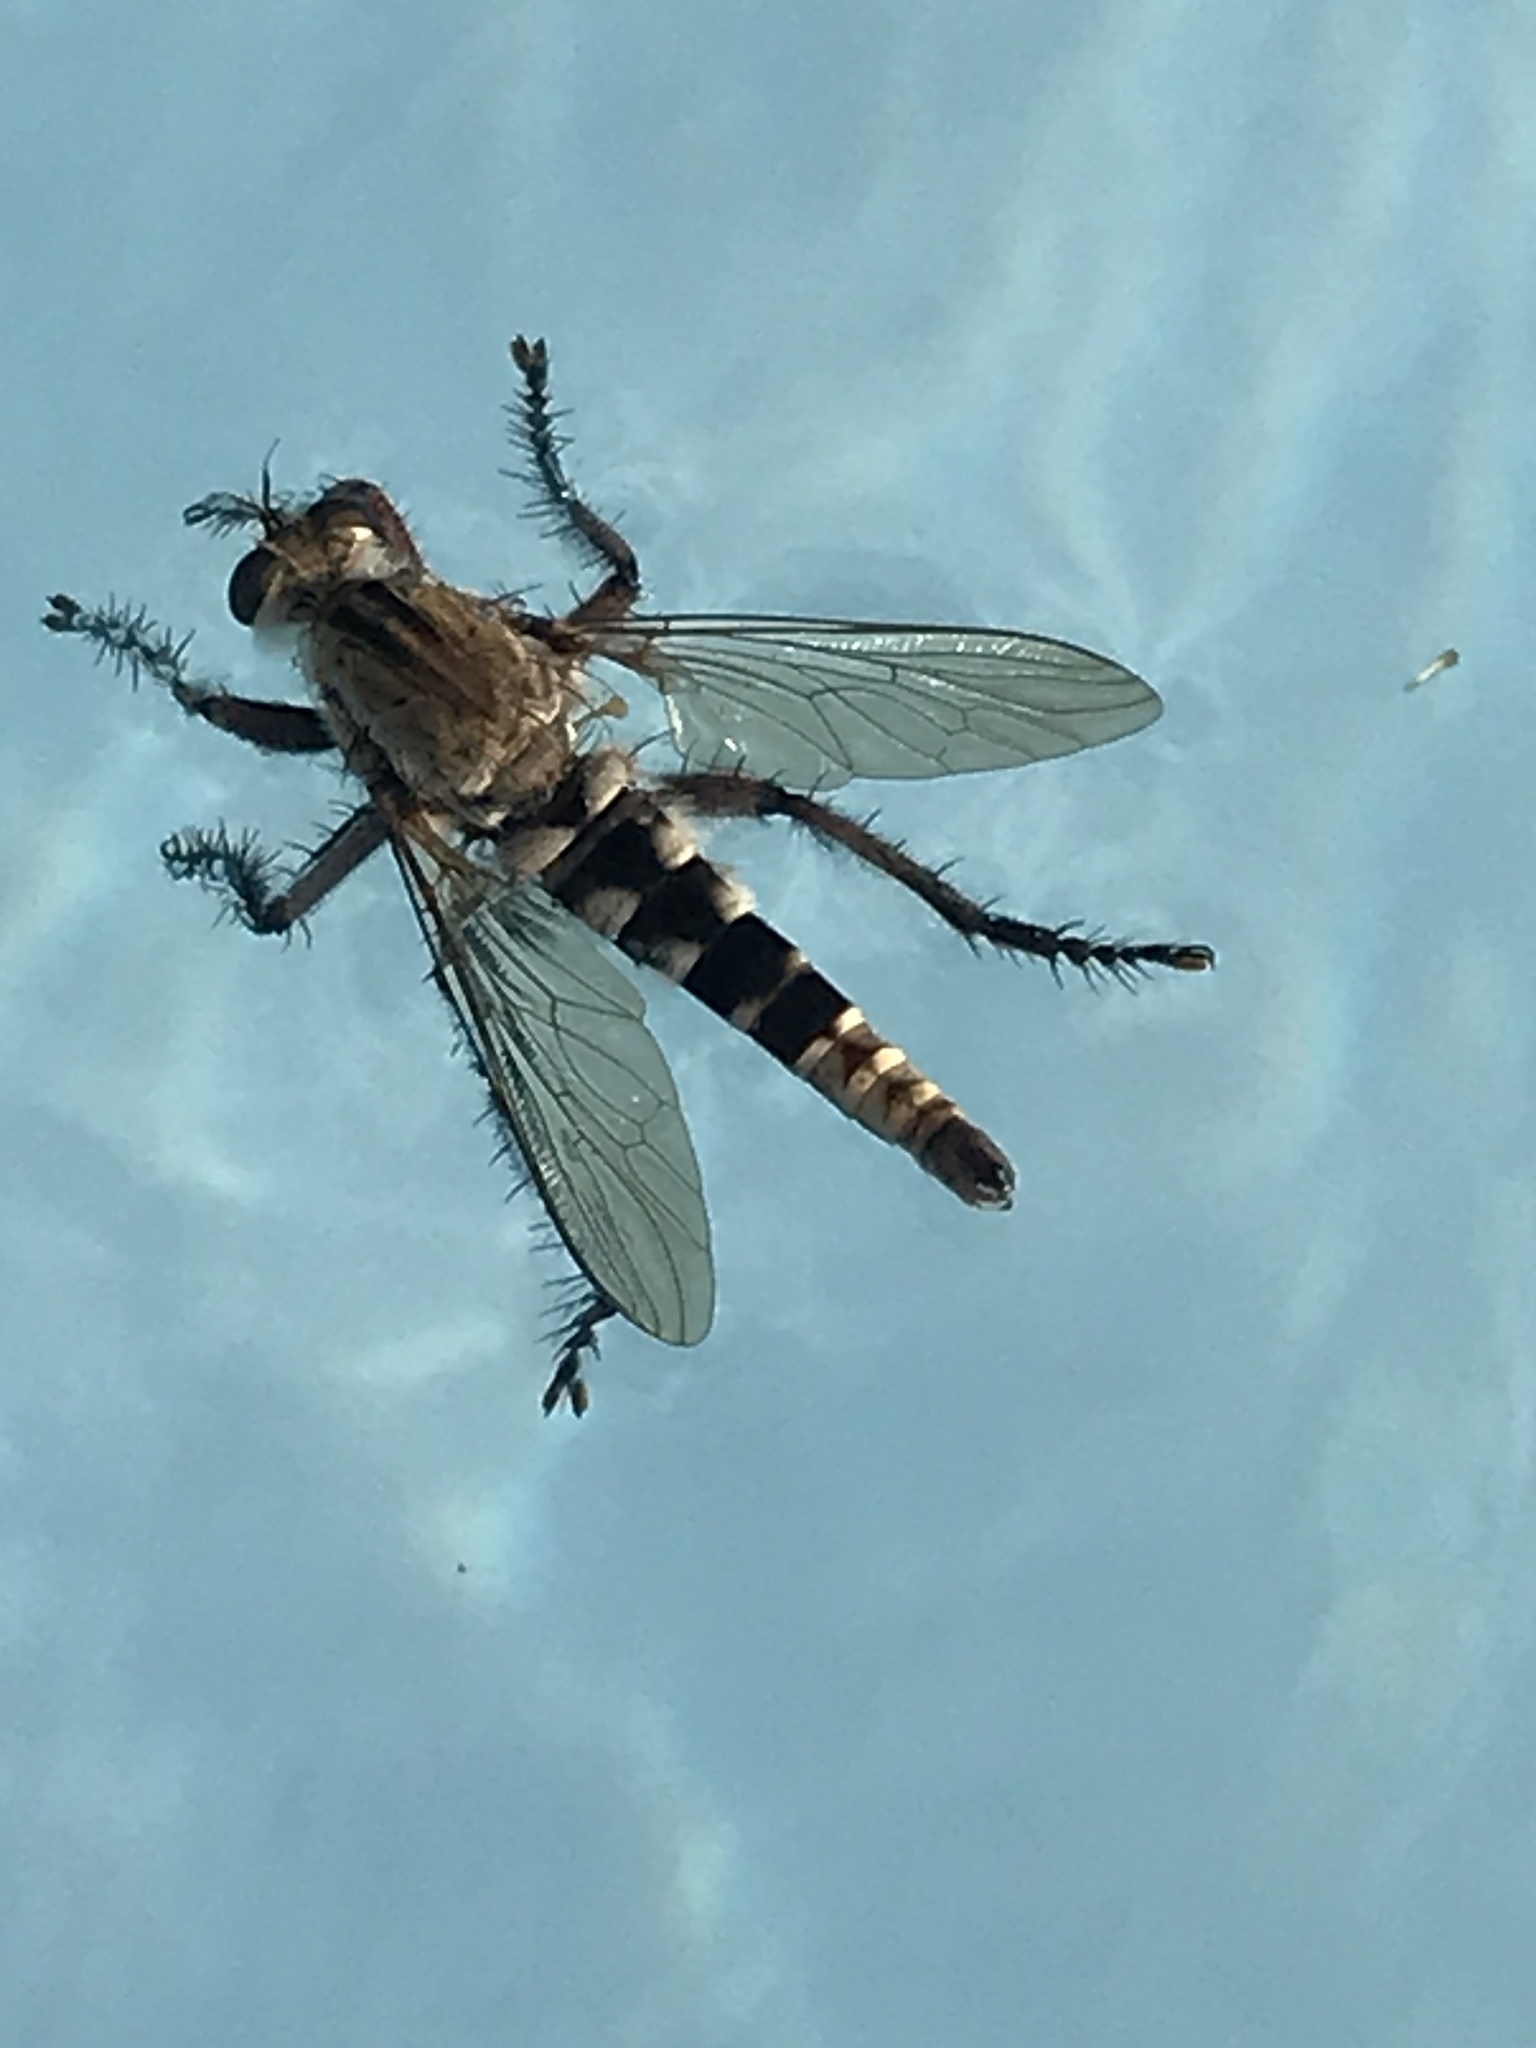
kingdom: Animalia
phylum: Arthropoda
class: Insecta
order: Diptera
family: Asilidae
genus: Triorla
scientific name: Triorla interrupta
